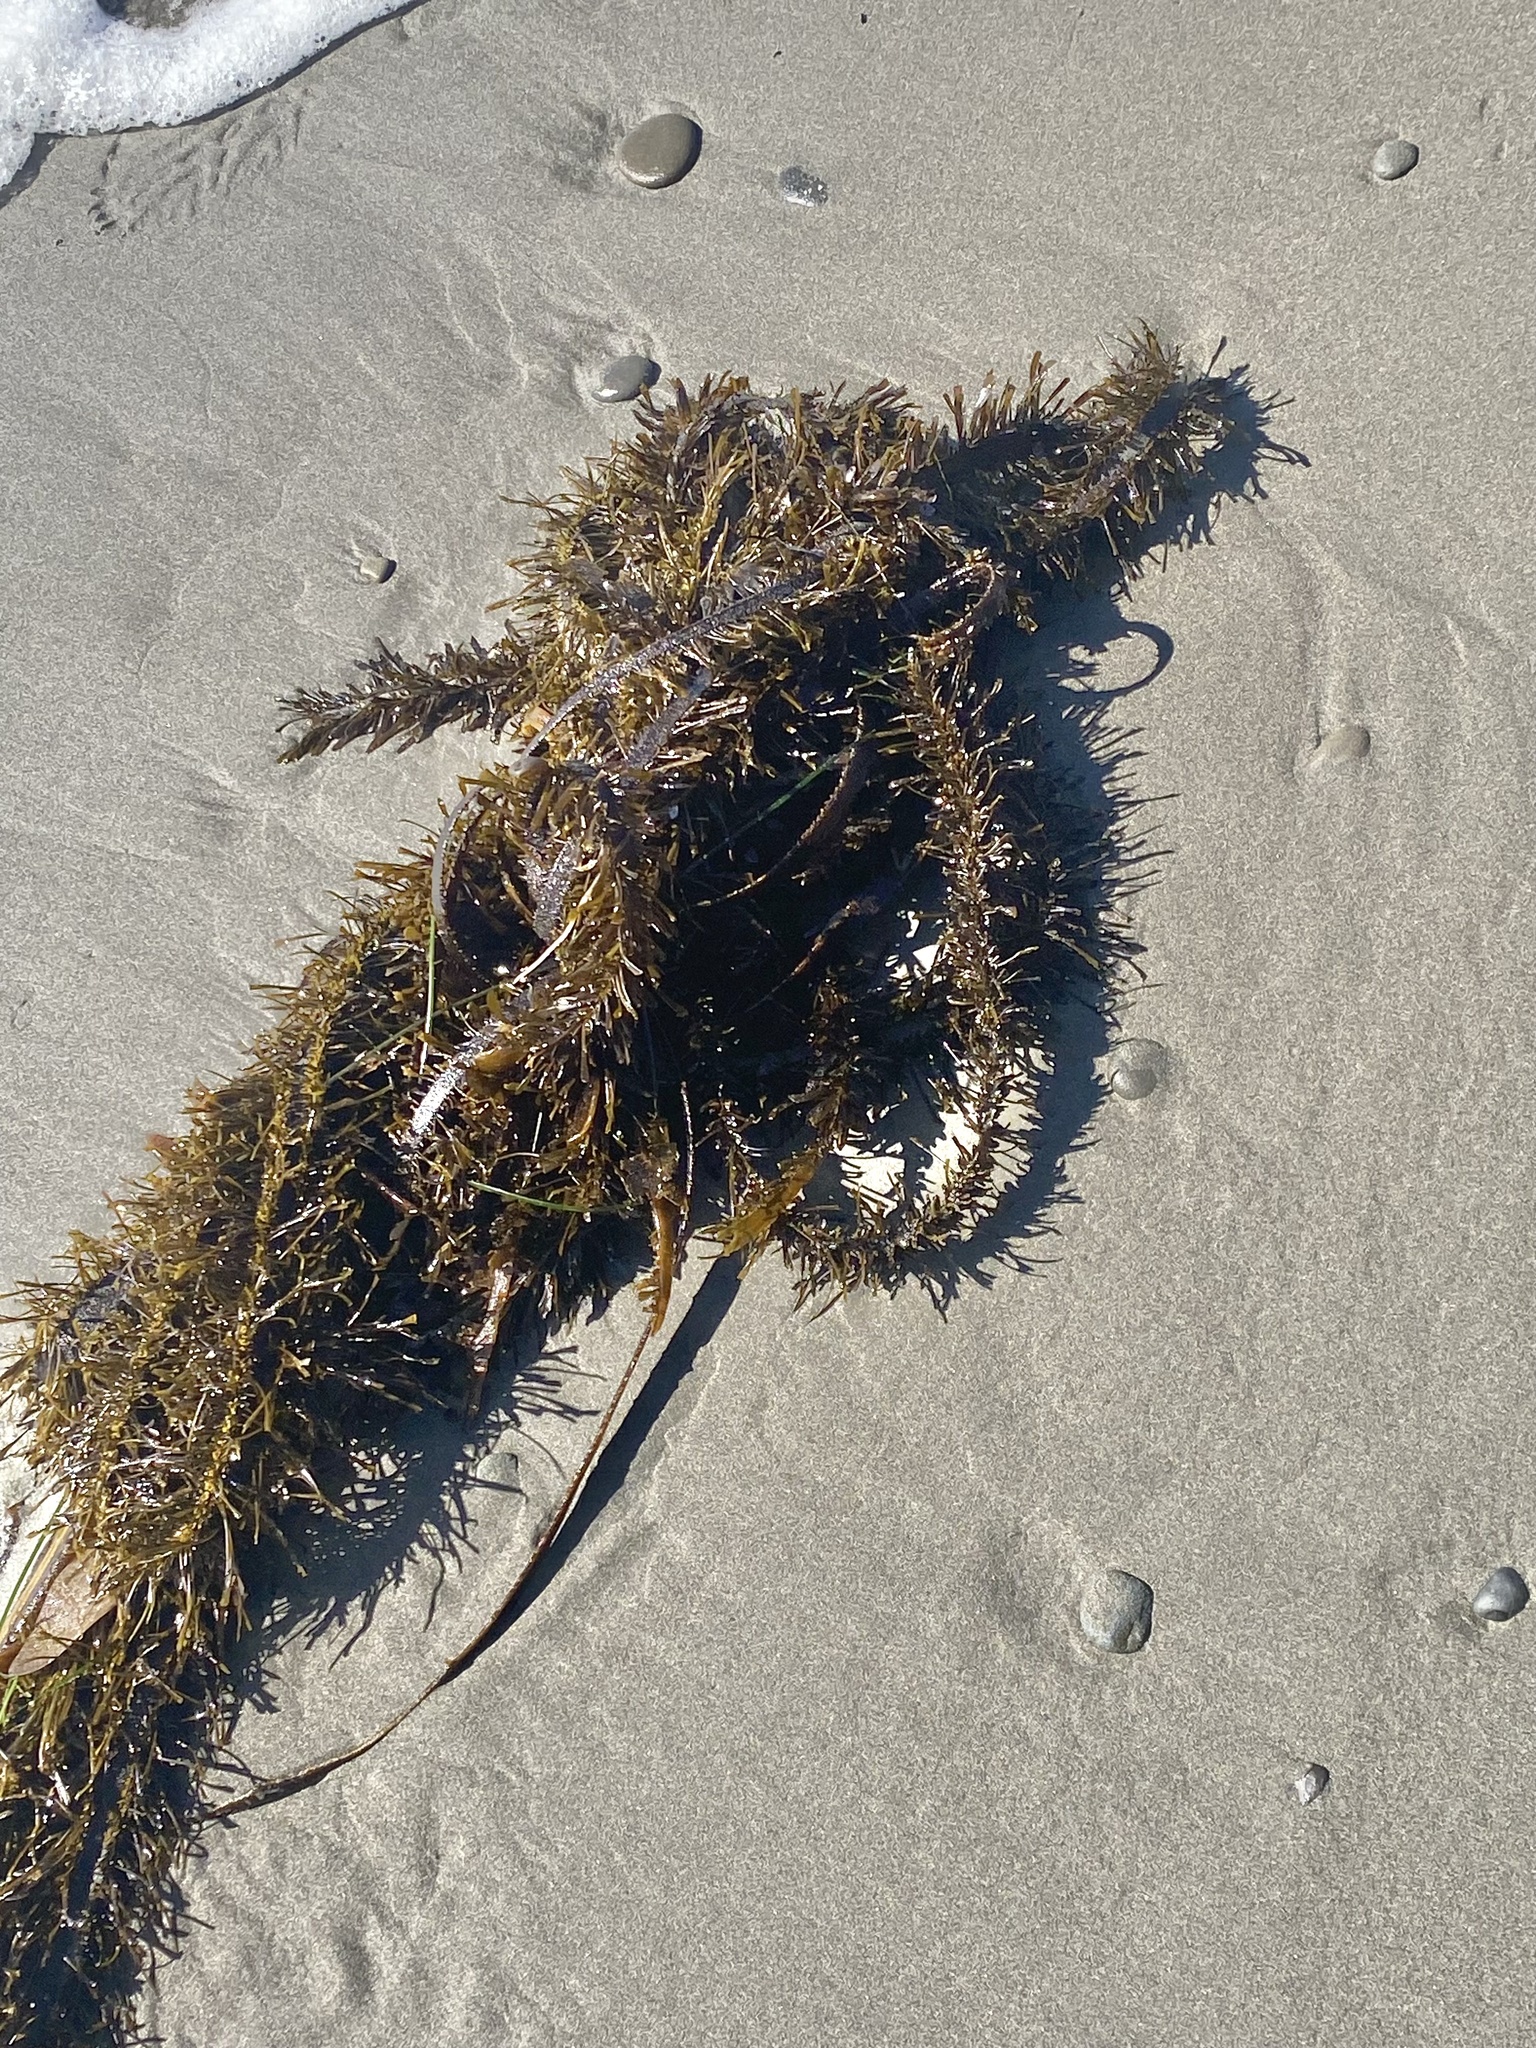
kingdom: Chromista
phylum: Ochrophyta
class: Phaeophyceae
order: Laminariales
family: Lessoniaceae
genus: Egregia
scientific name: Egregia menziesii
